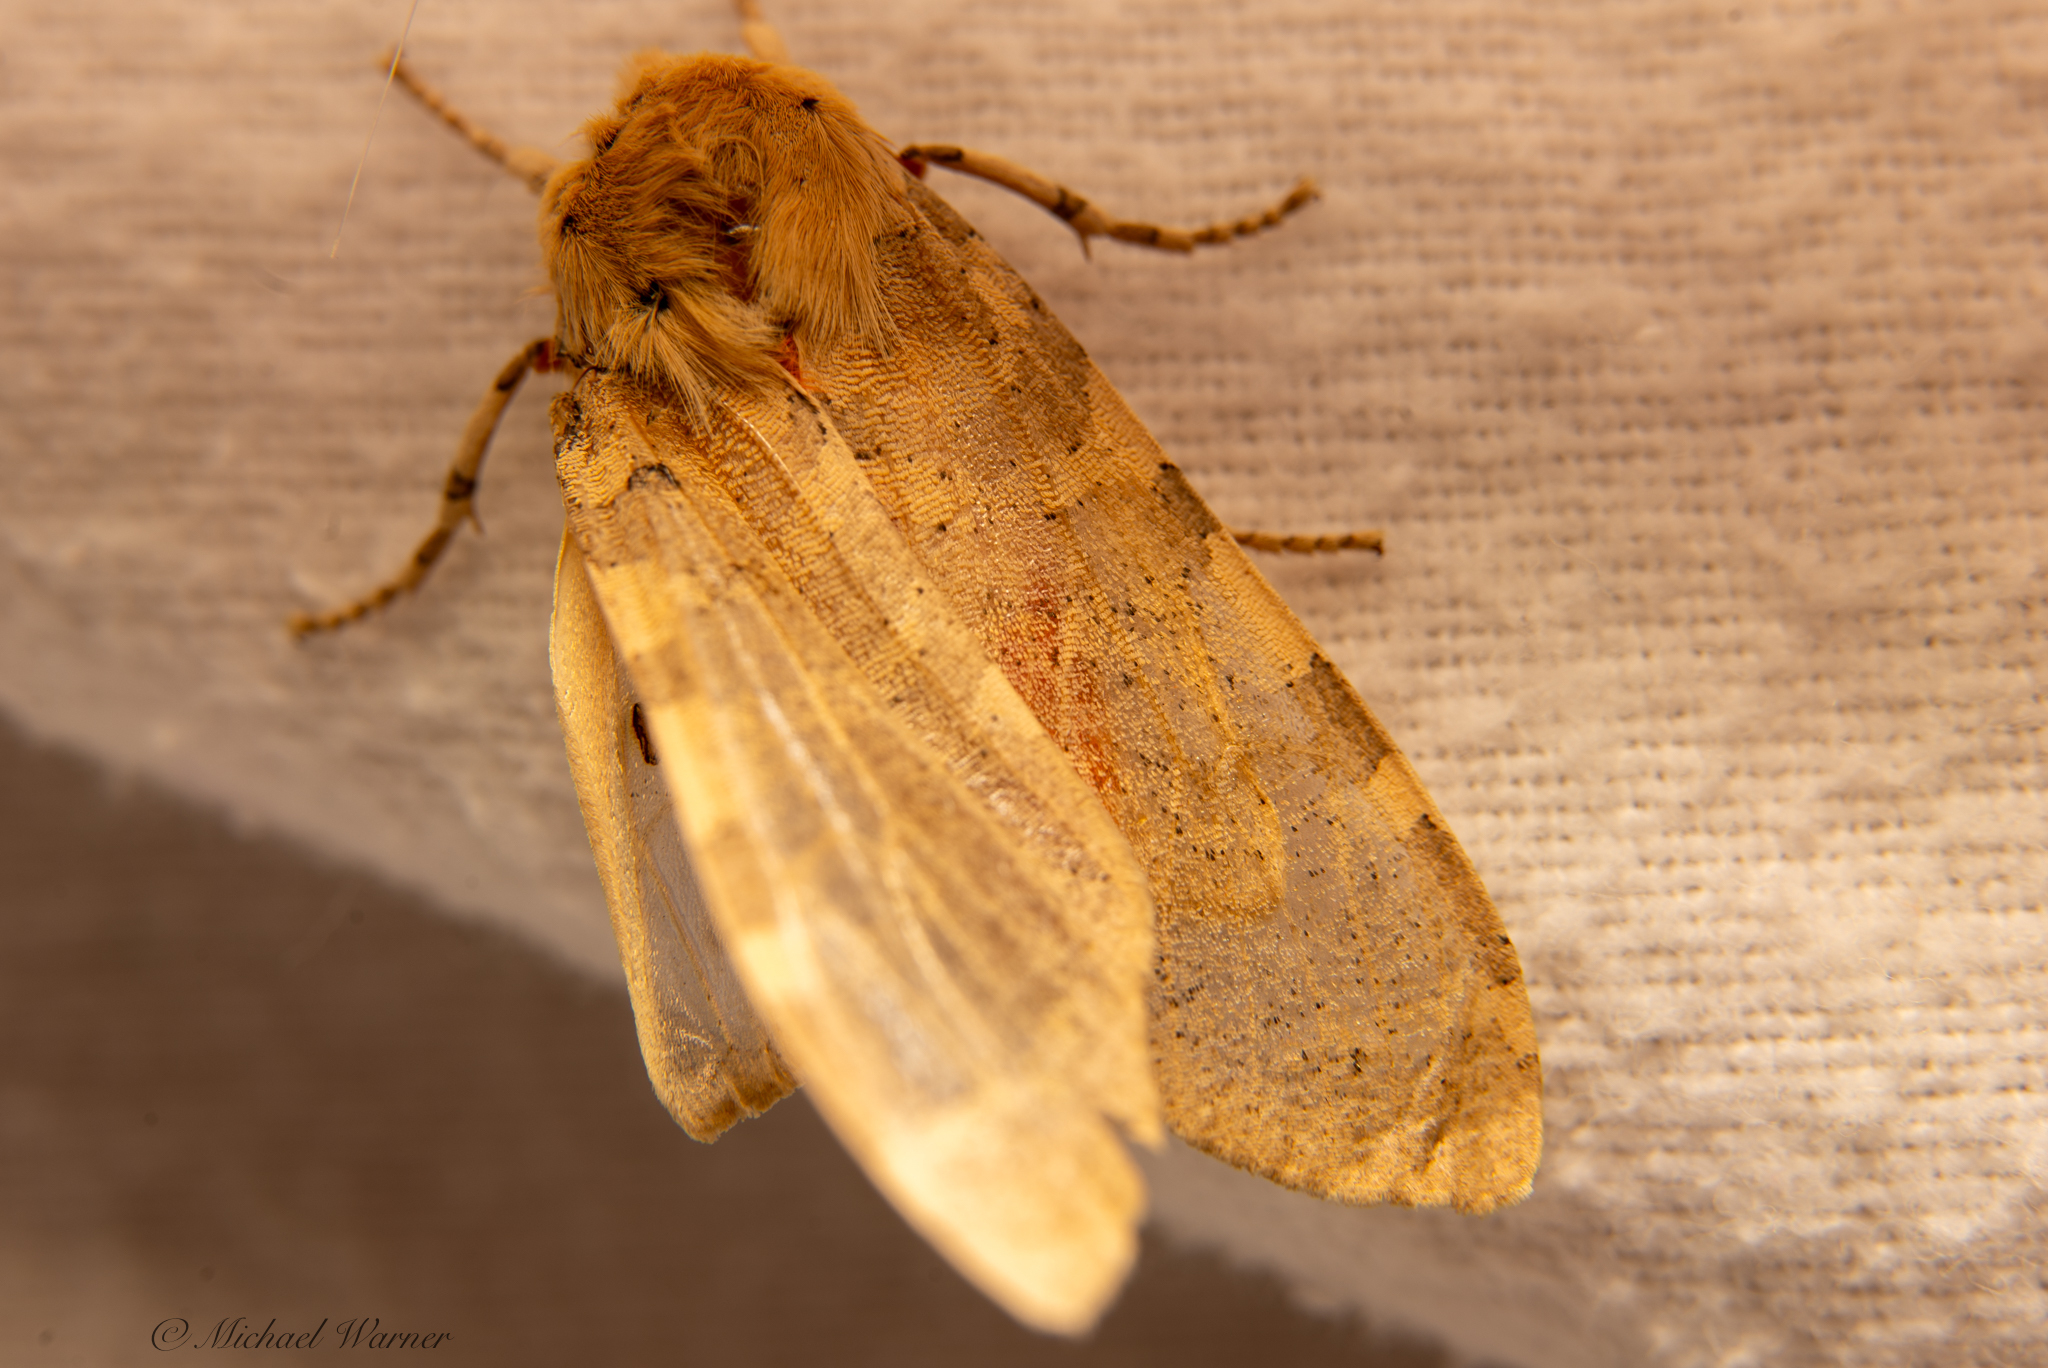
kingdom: Animalia
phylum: Arthropoda
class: Insecta
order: Lepidoptera
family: Erebidae
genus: Hemihyalea
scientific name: Hemihyalea edwardsii
